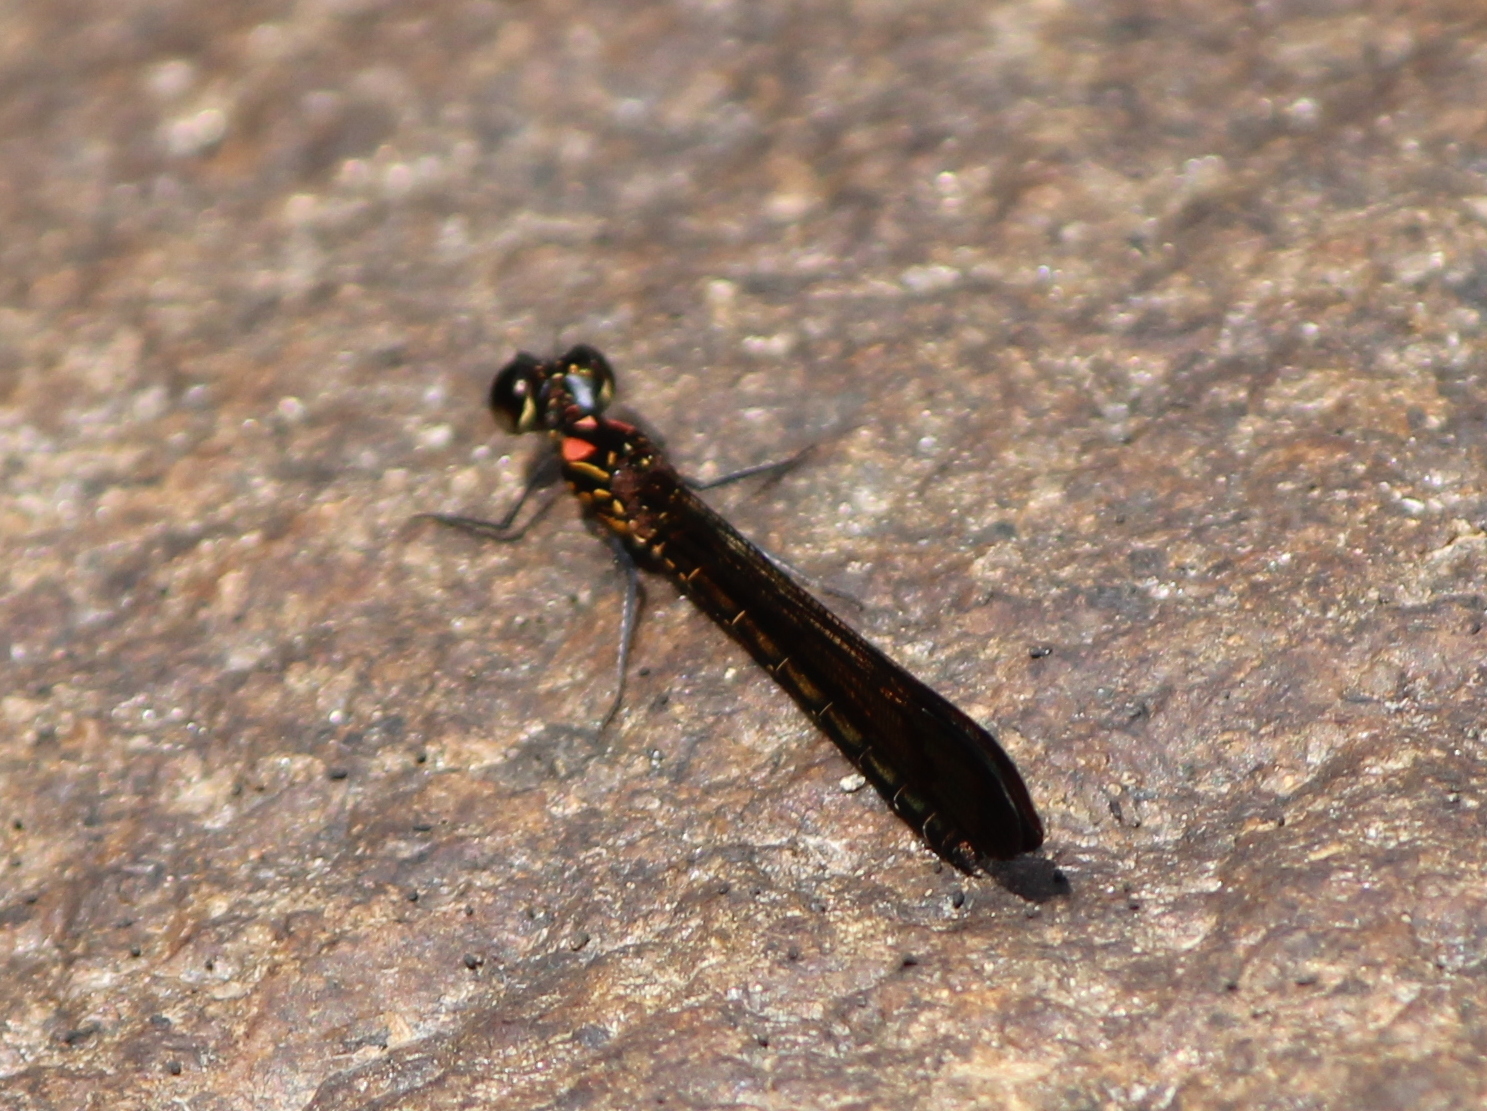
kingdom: Animalia
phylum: Arthropoda
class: Insecta
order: Odonata
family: Chlorocyphidae
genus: Heliocypha
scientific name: Heliocypha bisignata
